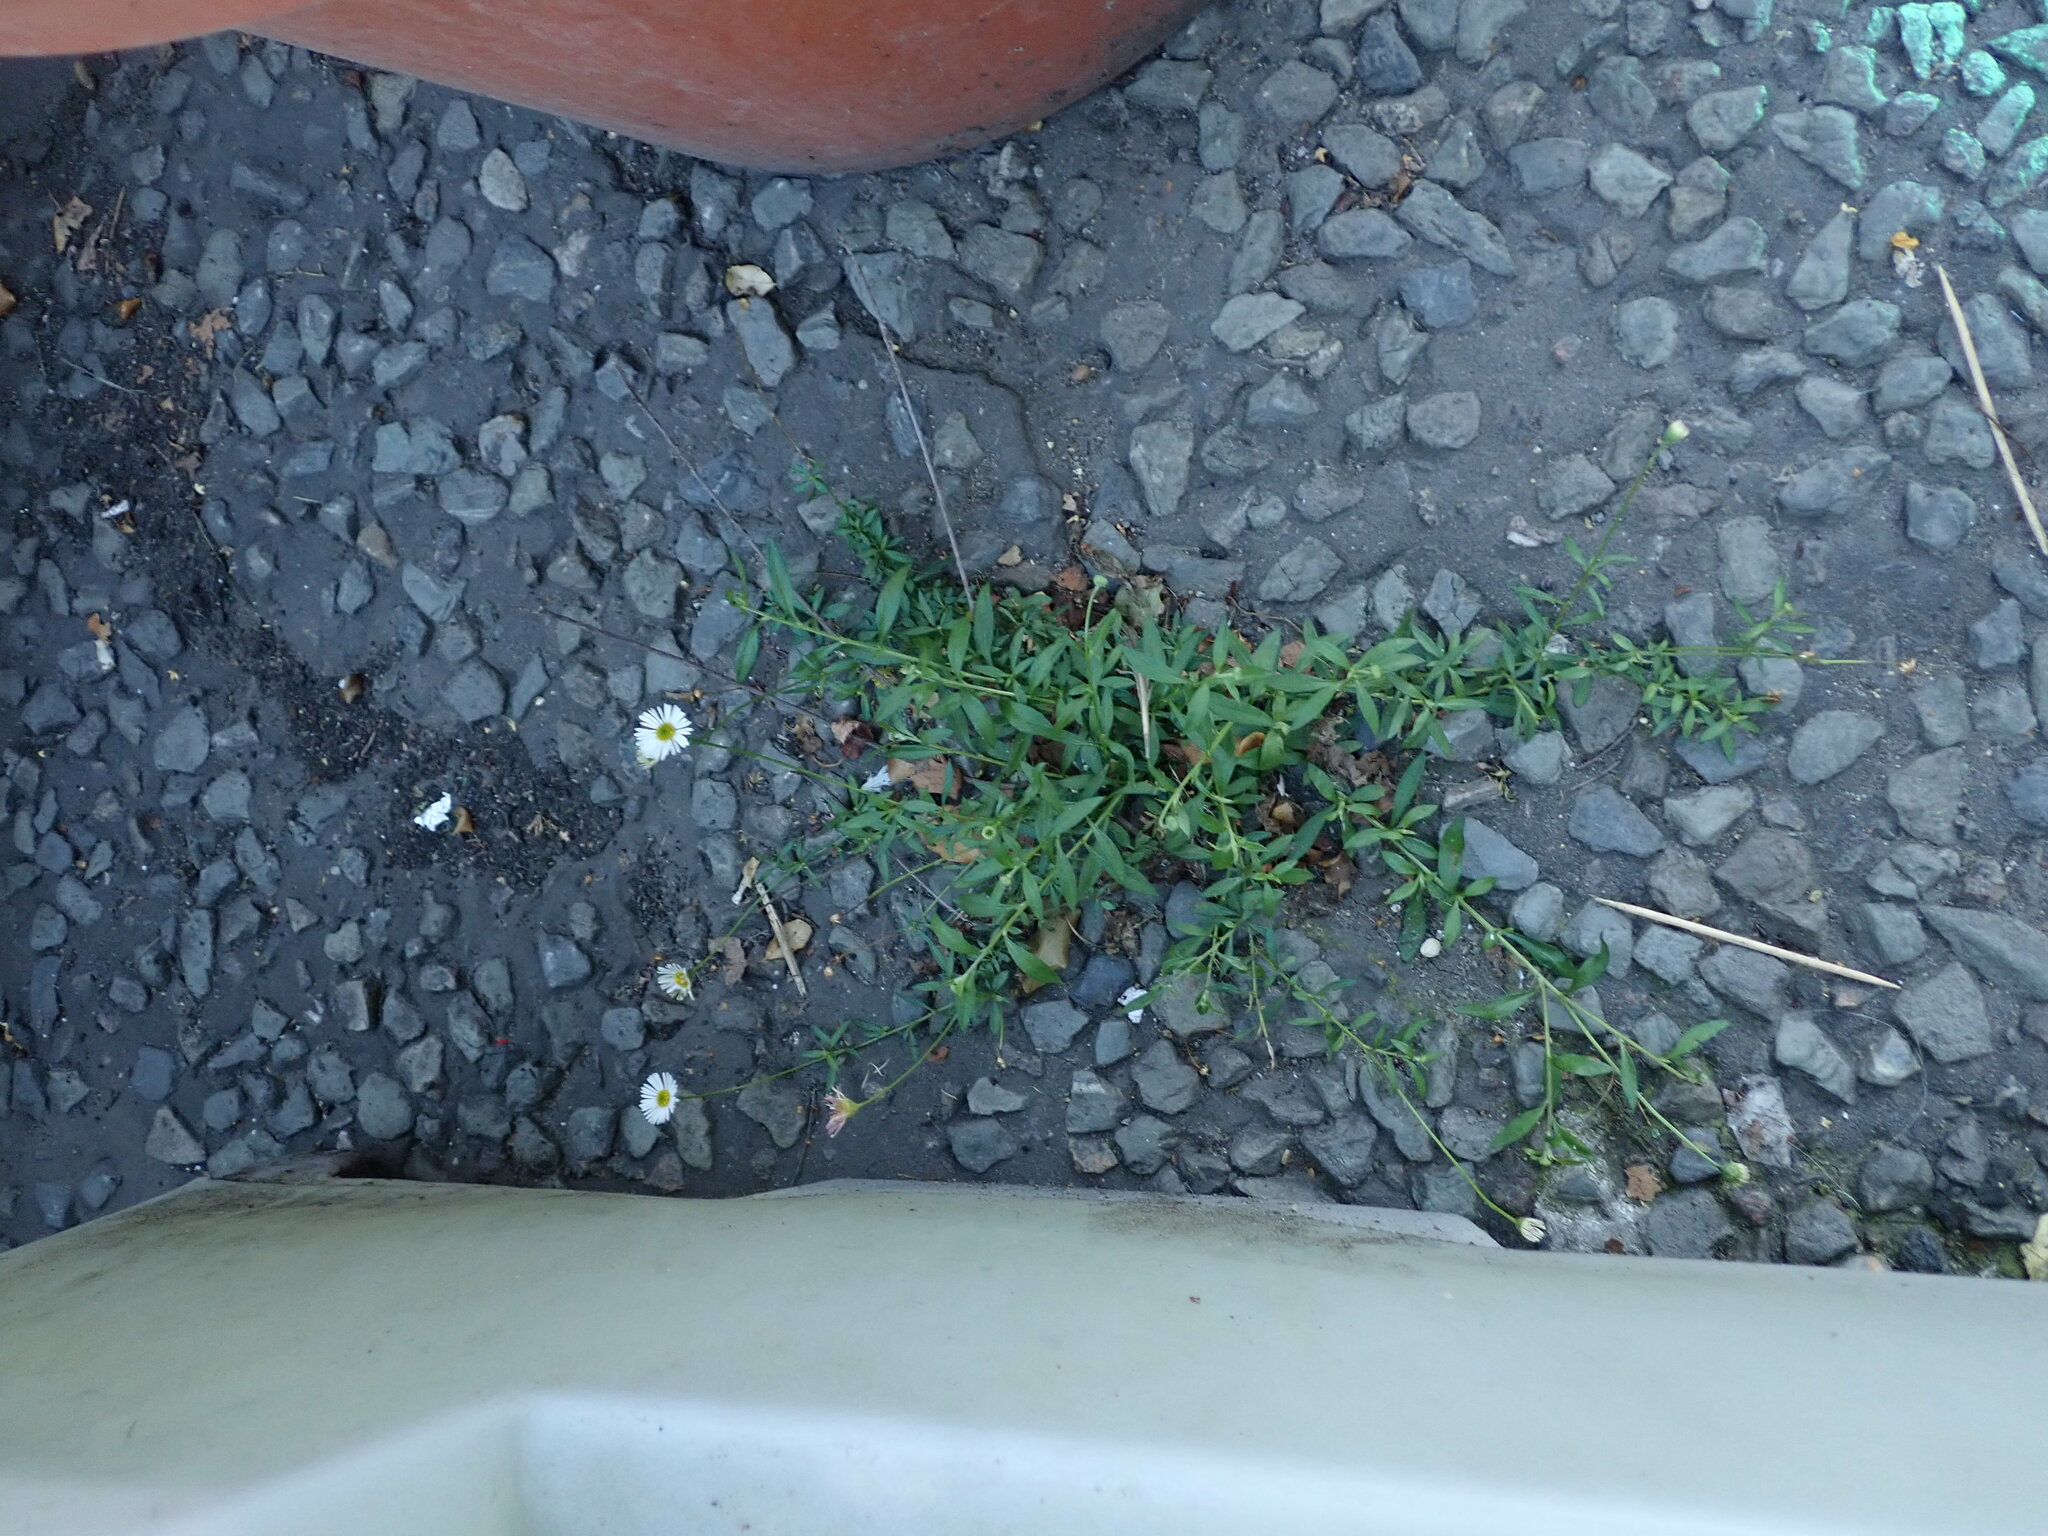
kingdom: Plantae
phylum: Tracheophyta
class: Magnoliopsida
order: Asterales
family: Asteraceae
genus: Erigeron
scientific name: Erigeron karvinskianus
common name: Mexican fleabane
